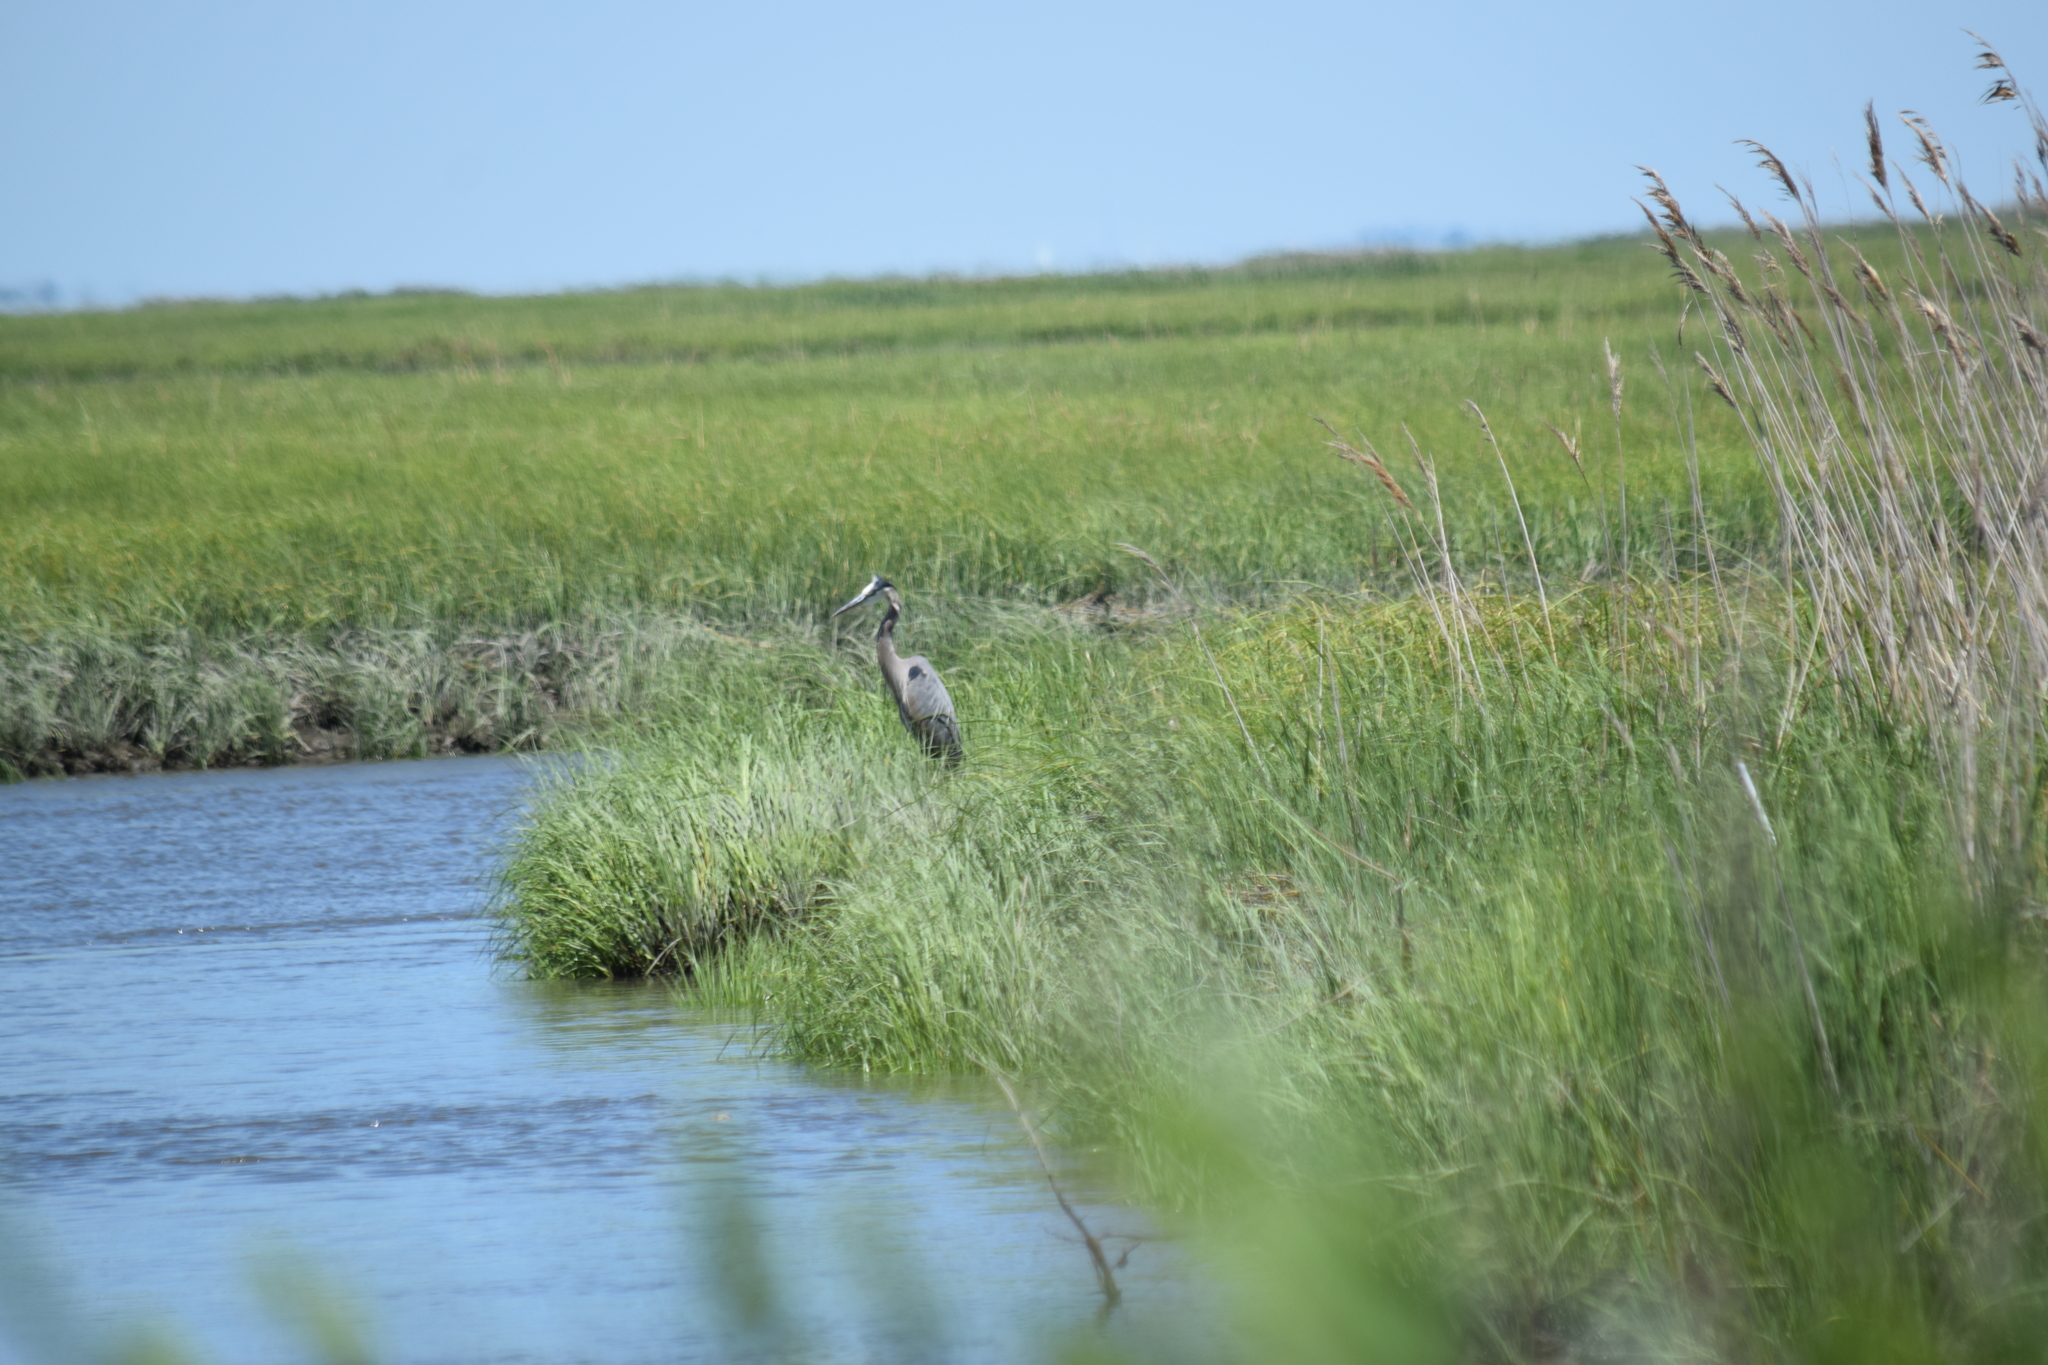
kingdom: Animalia
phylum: Chordata
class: Aves
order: Pelecaniformes
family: Ardeidae
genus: Ardea
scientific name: Ardea herodias
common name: Great blue heron
